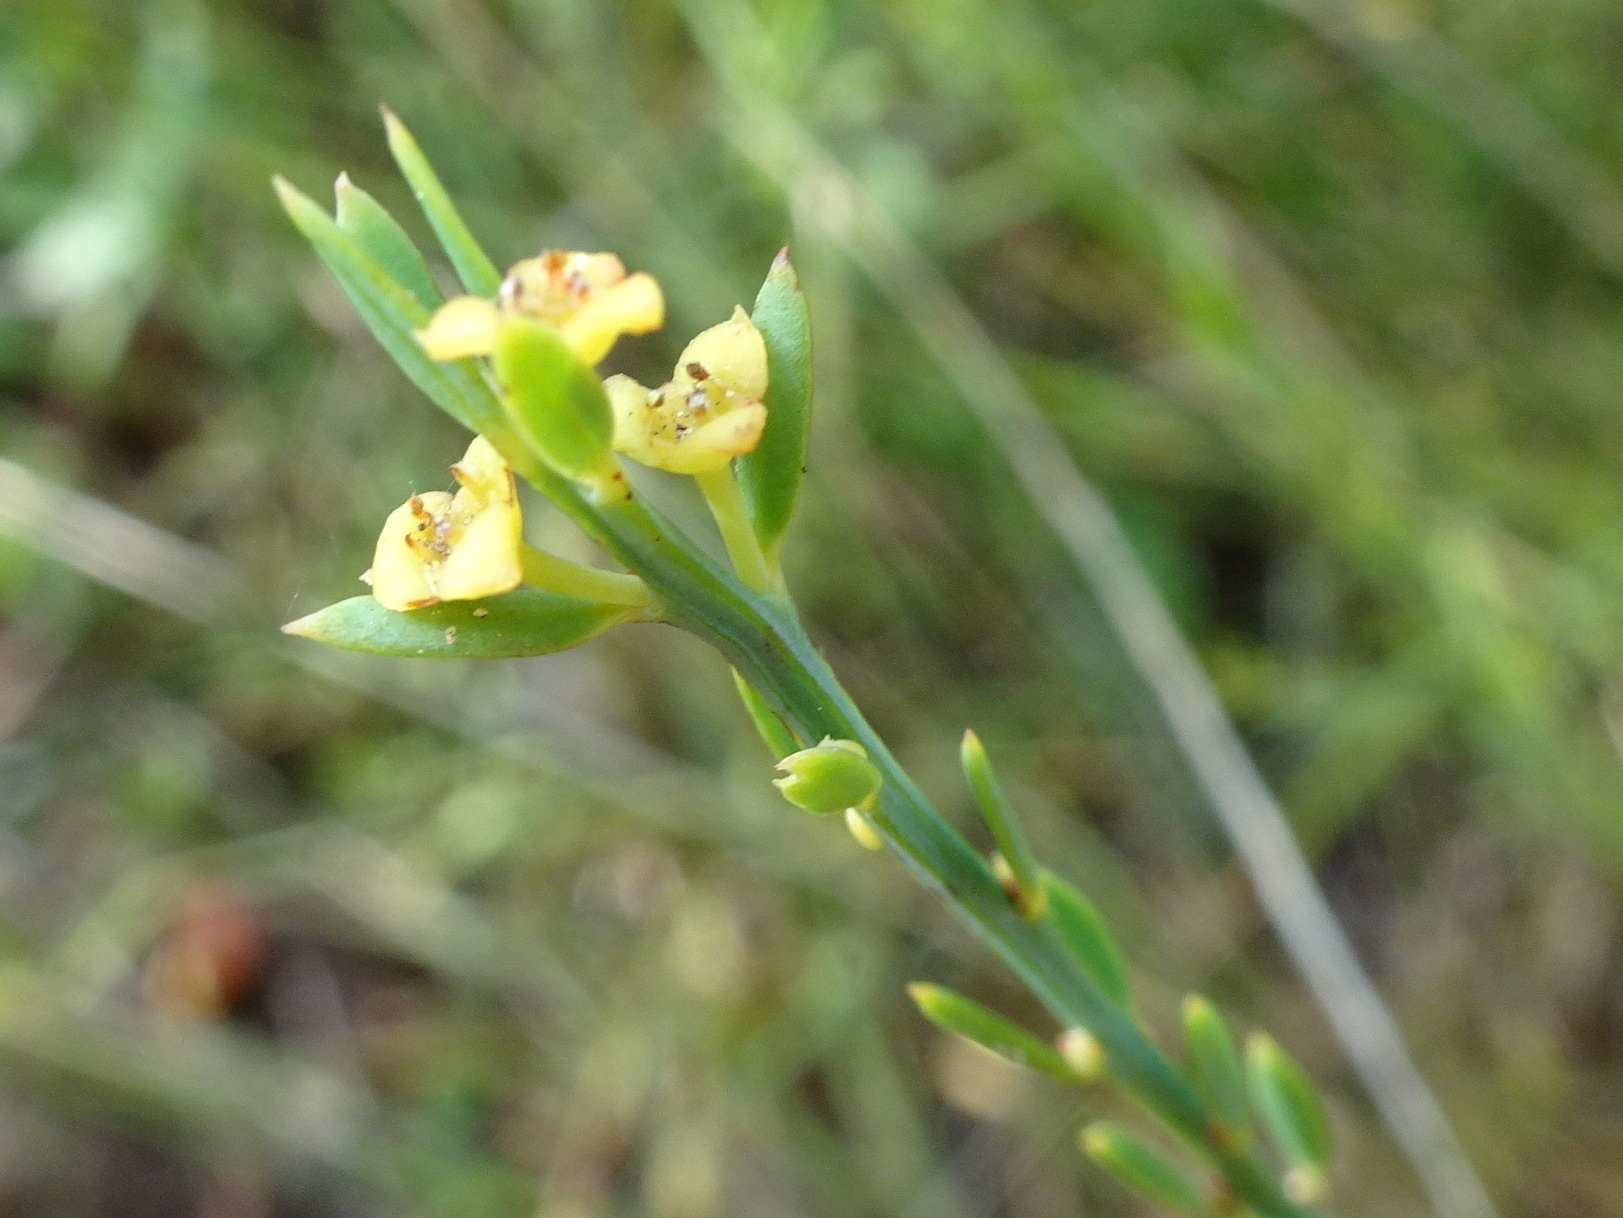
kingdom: Plantae
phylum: Tracheophyta
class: Magnoliopsida
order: Santalales
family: Santalaceae
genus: Osyris
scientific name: Osyris alba
